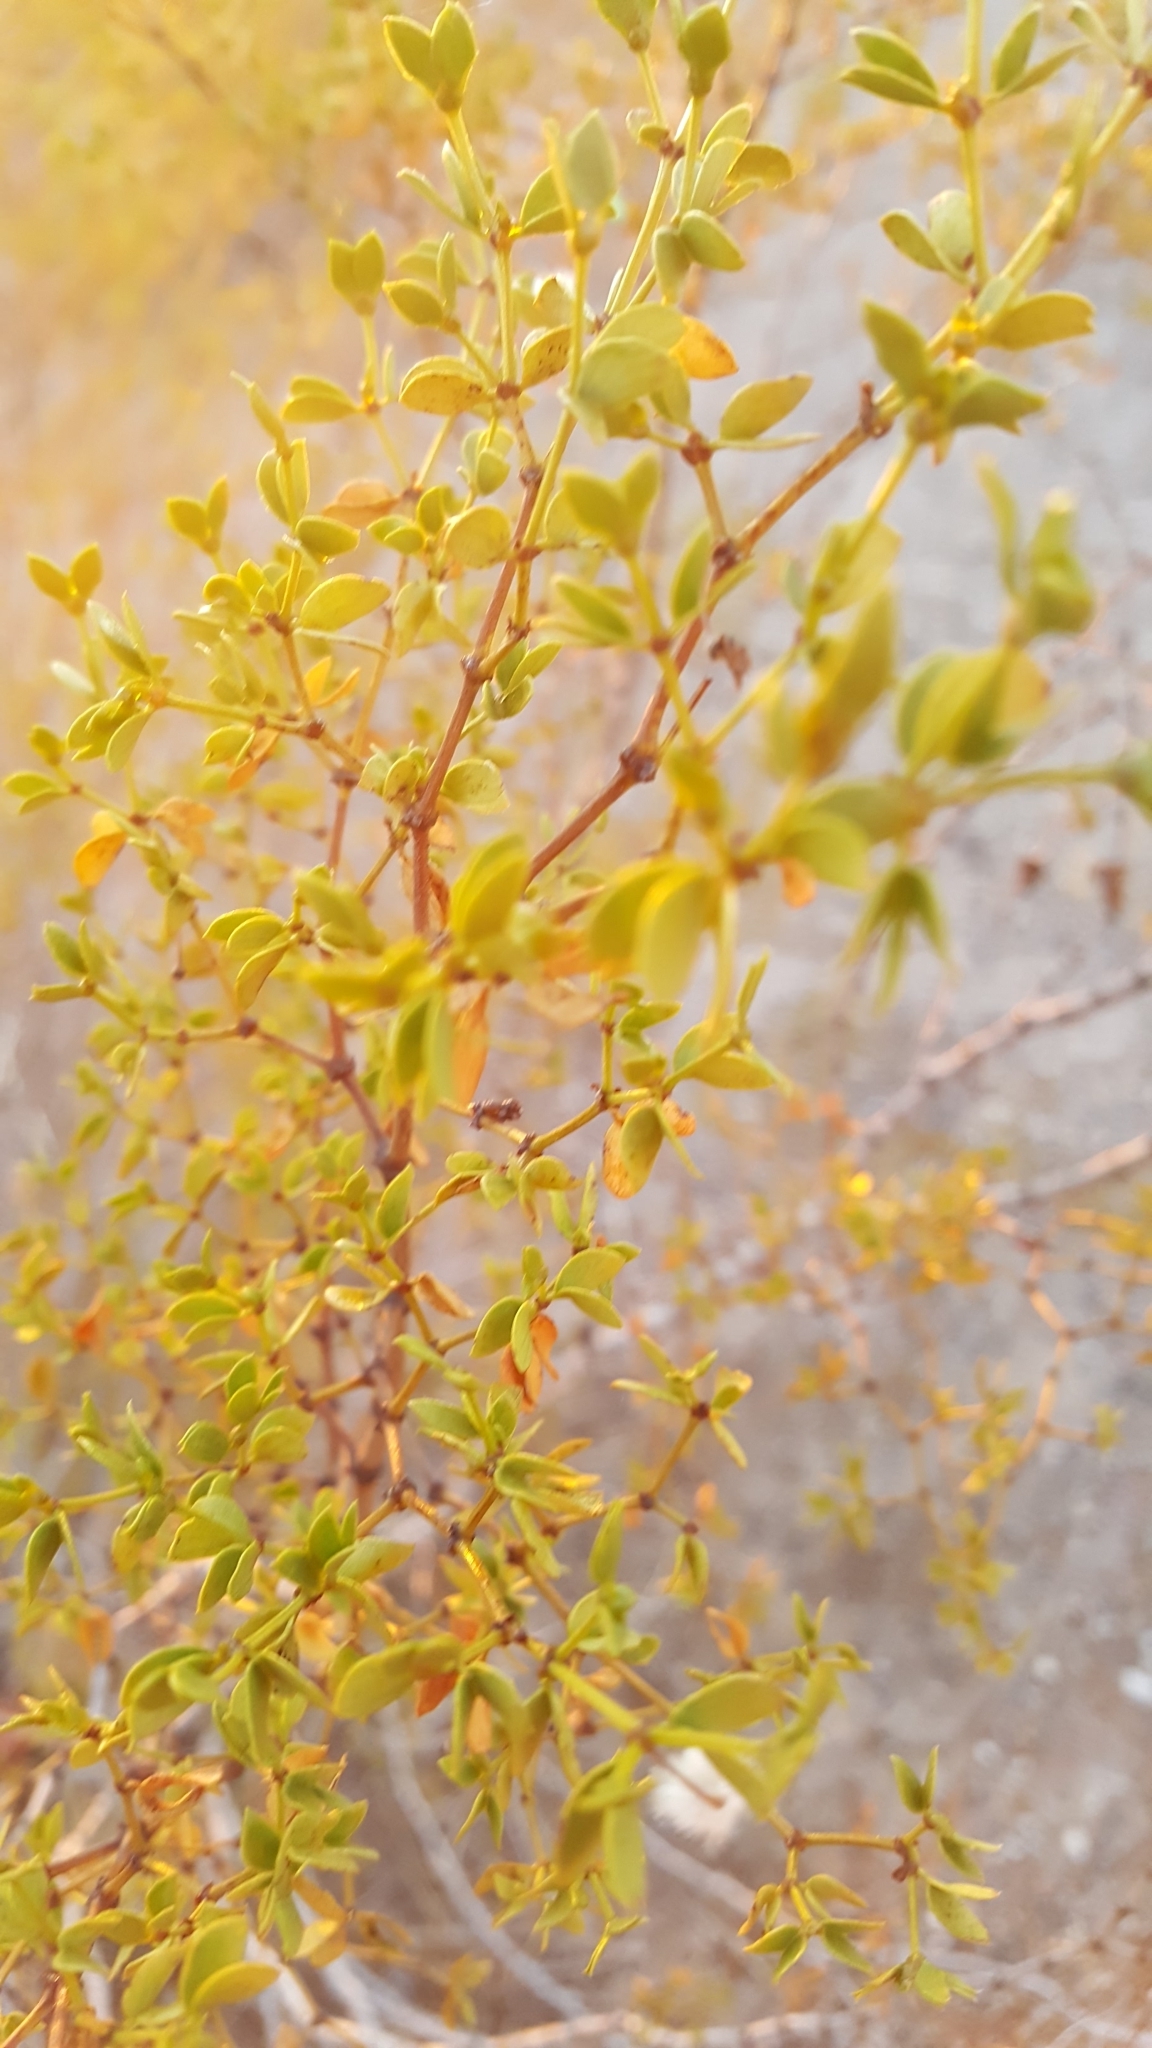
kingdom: Plantae
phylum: Tracheophyta
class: Magnoliopsida
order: Zygophyllales
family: Zygophyllaceae
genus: Larrea
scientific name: Larrea tridentata
